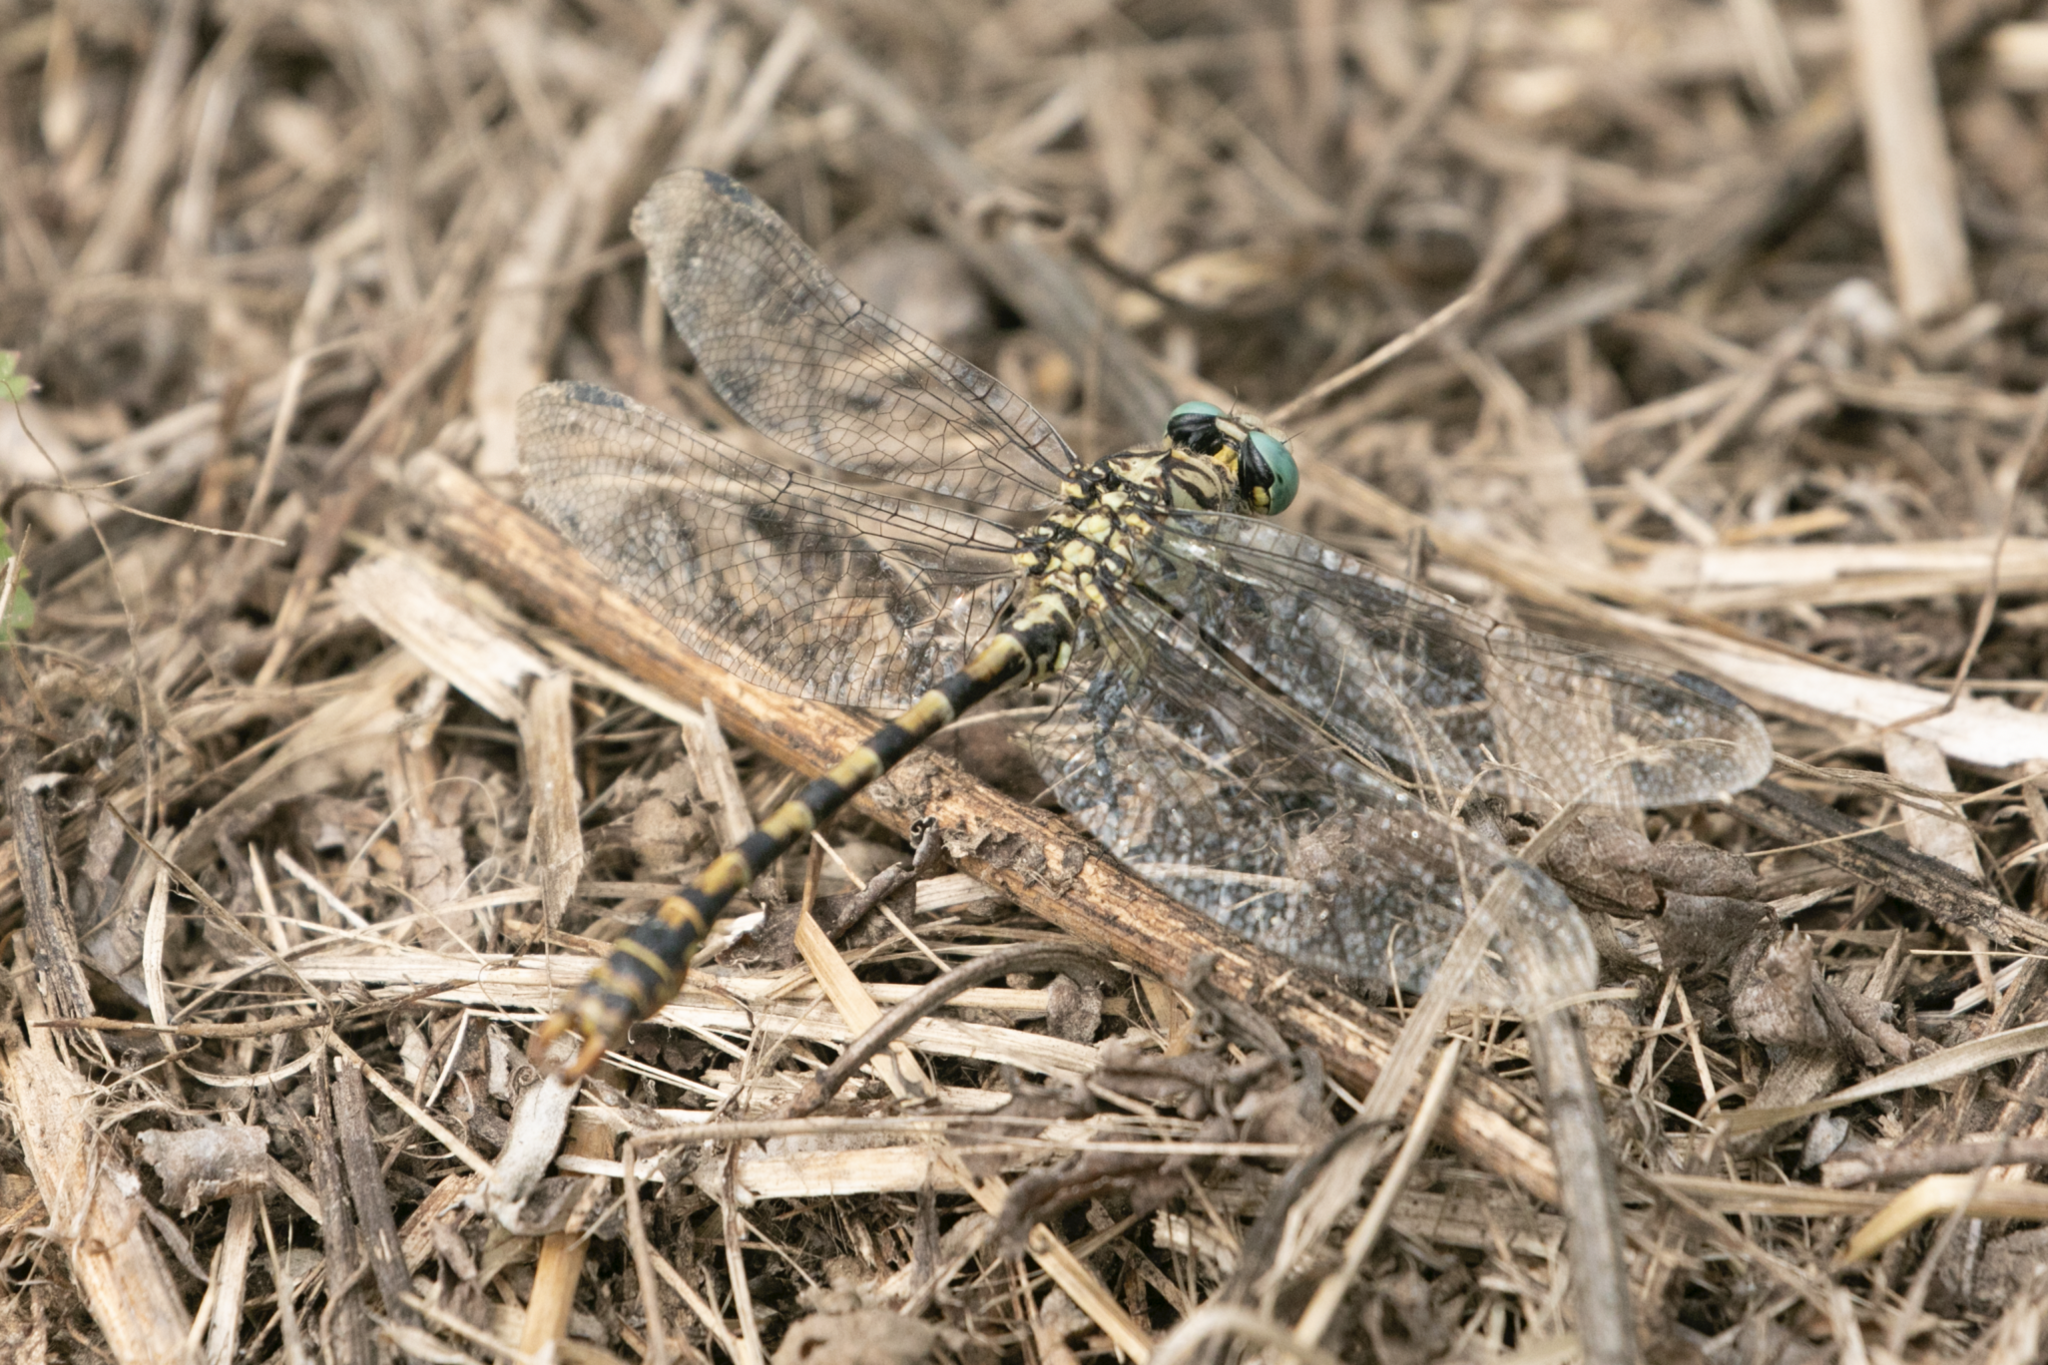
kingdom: Animalia
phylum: Arthropoda
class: Insecta
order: Odonata
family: Gomphidae
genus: Onychogomphus
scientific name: Onychogomphus forcipatus
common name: Small pincertail
